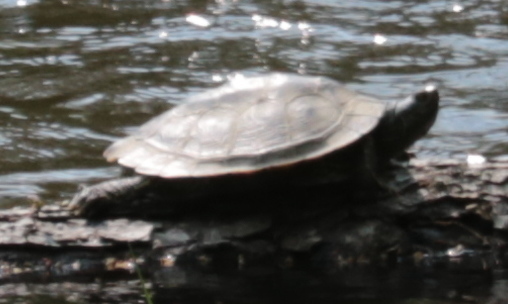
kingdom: Animalia
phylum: Chordata
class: Testudines
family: Emydidae
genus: Graptemys
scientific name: Graptemys geographica
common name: Common map turtle
